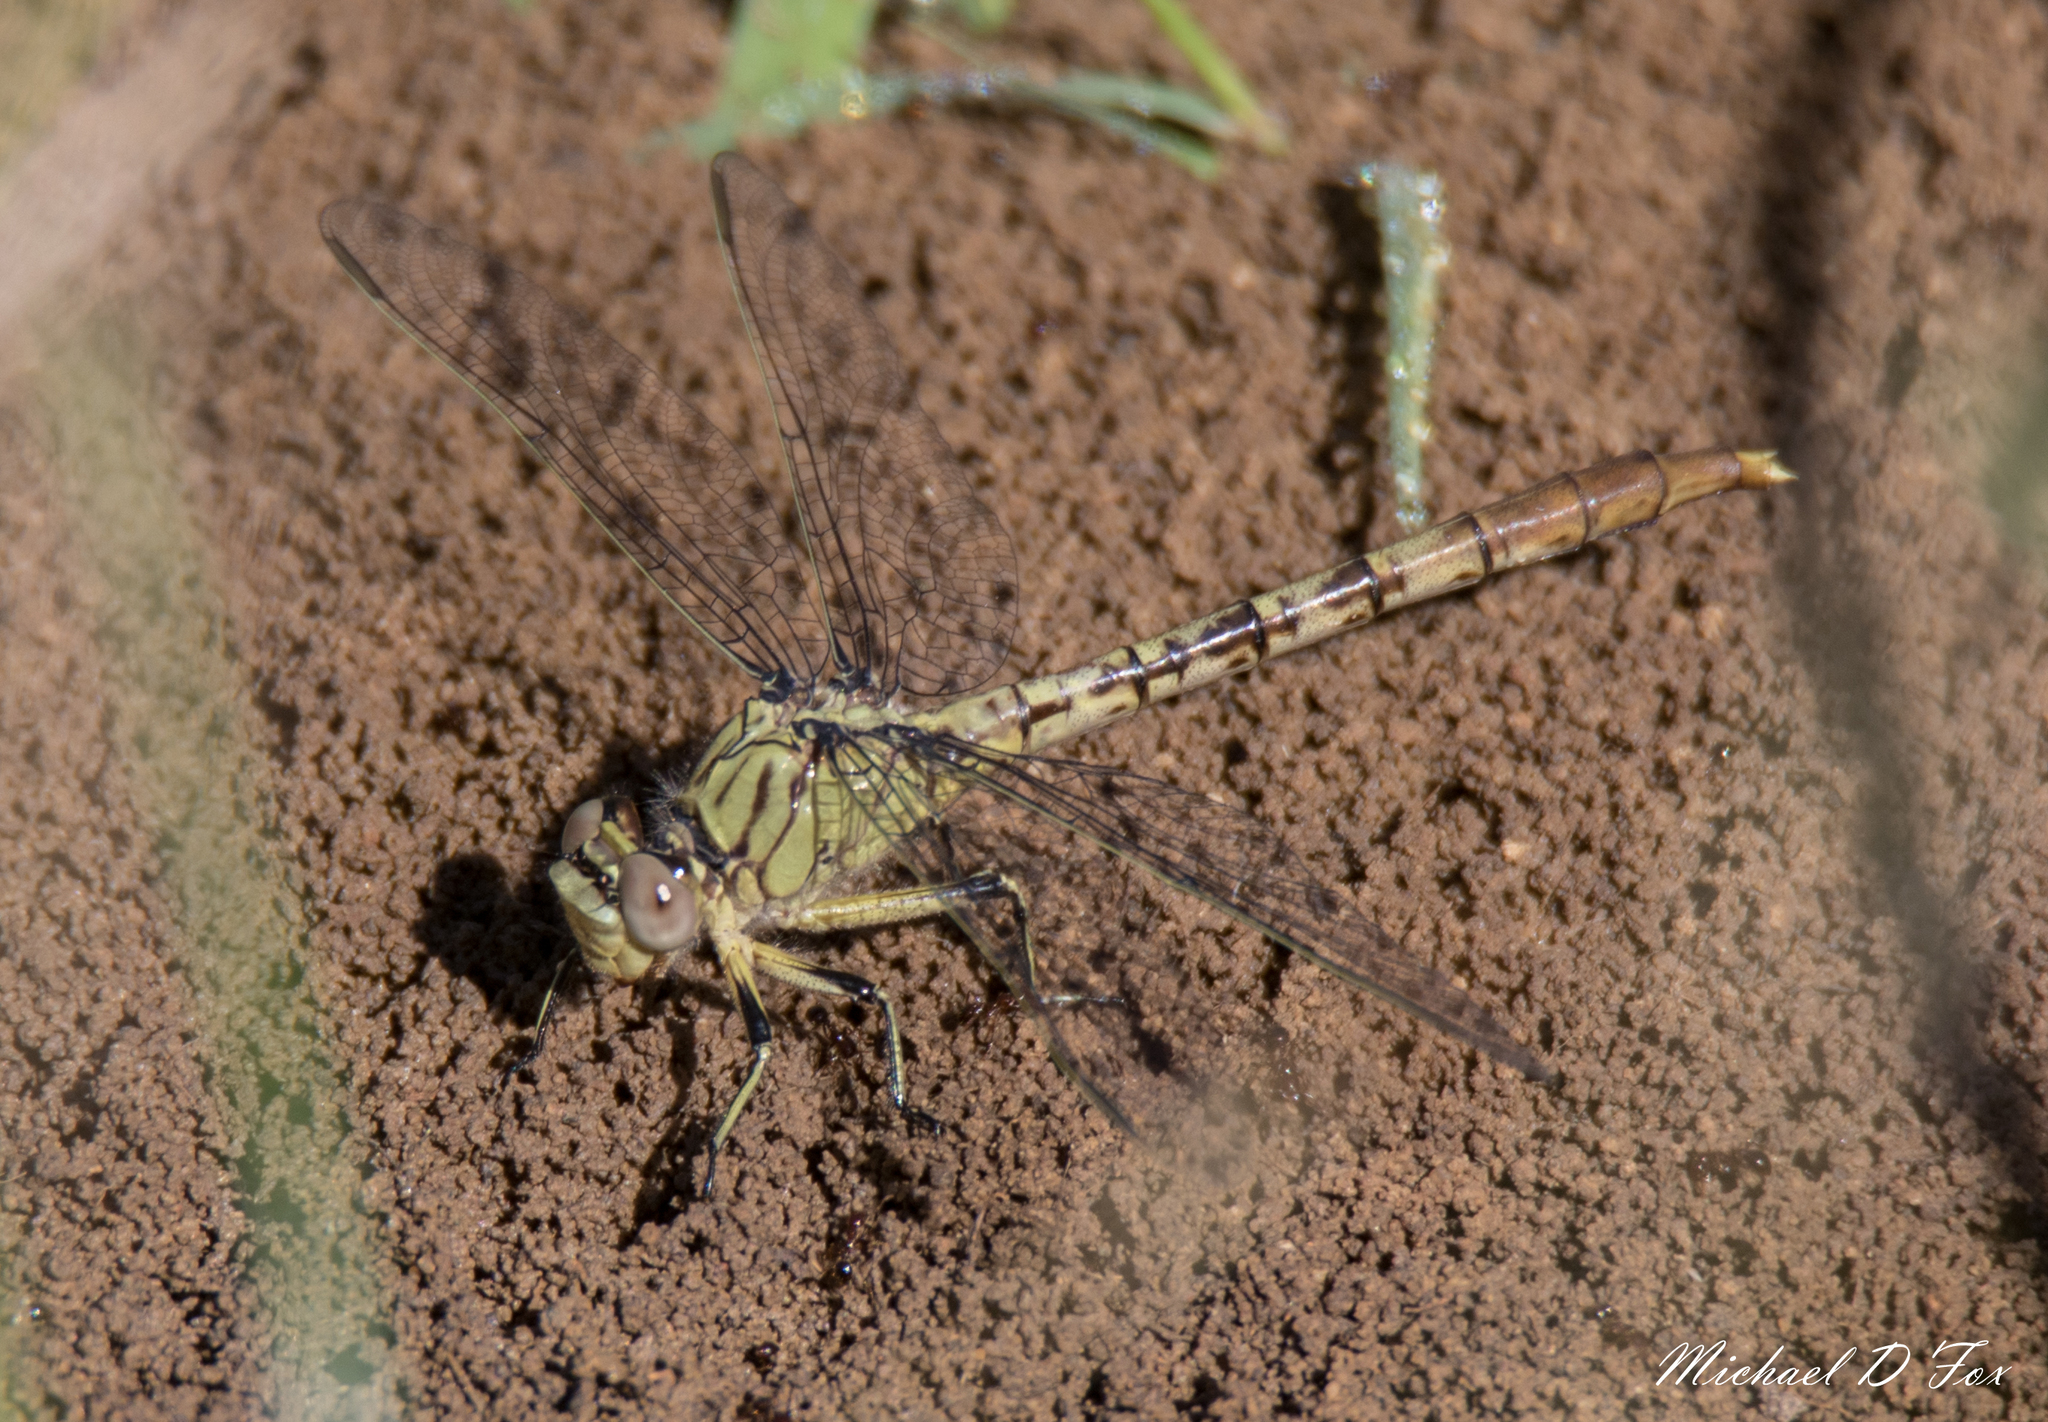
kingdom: Animalia
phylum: Arthropoda
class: Insecta
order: Odonata
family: Gomphidae
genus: Arigomphus
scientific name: Arigomphus submedianus
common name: Jade clubtail
